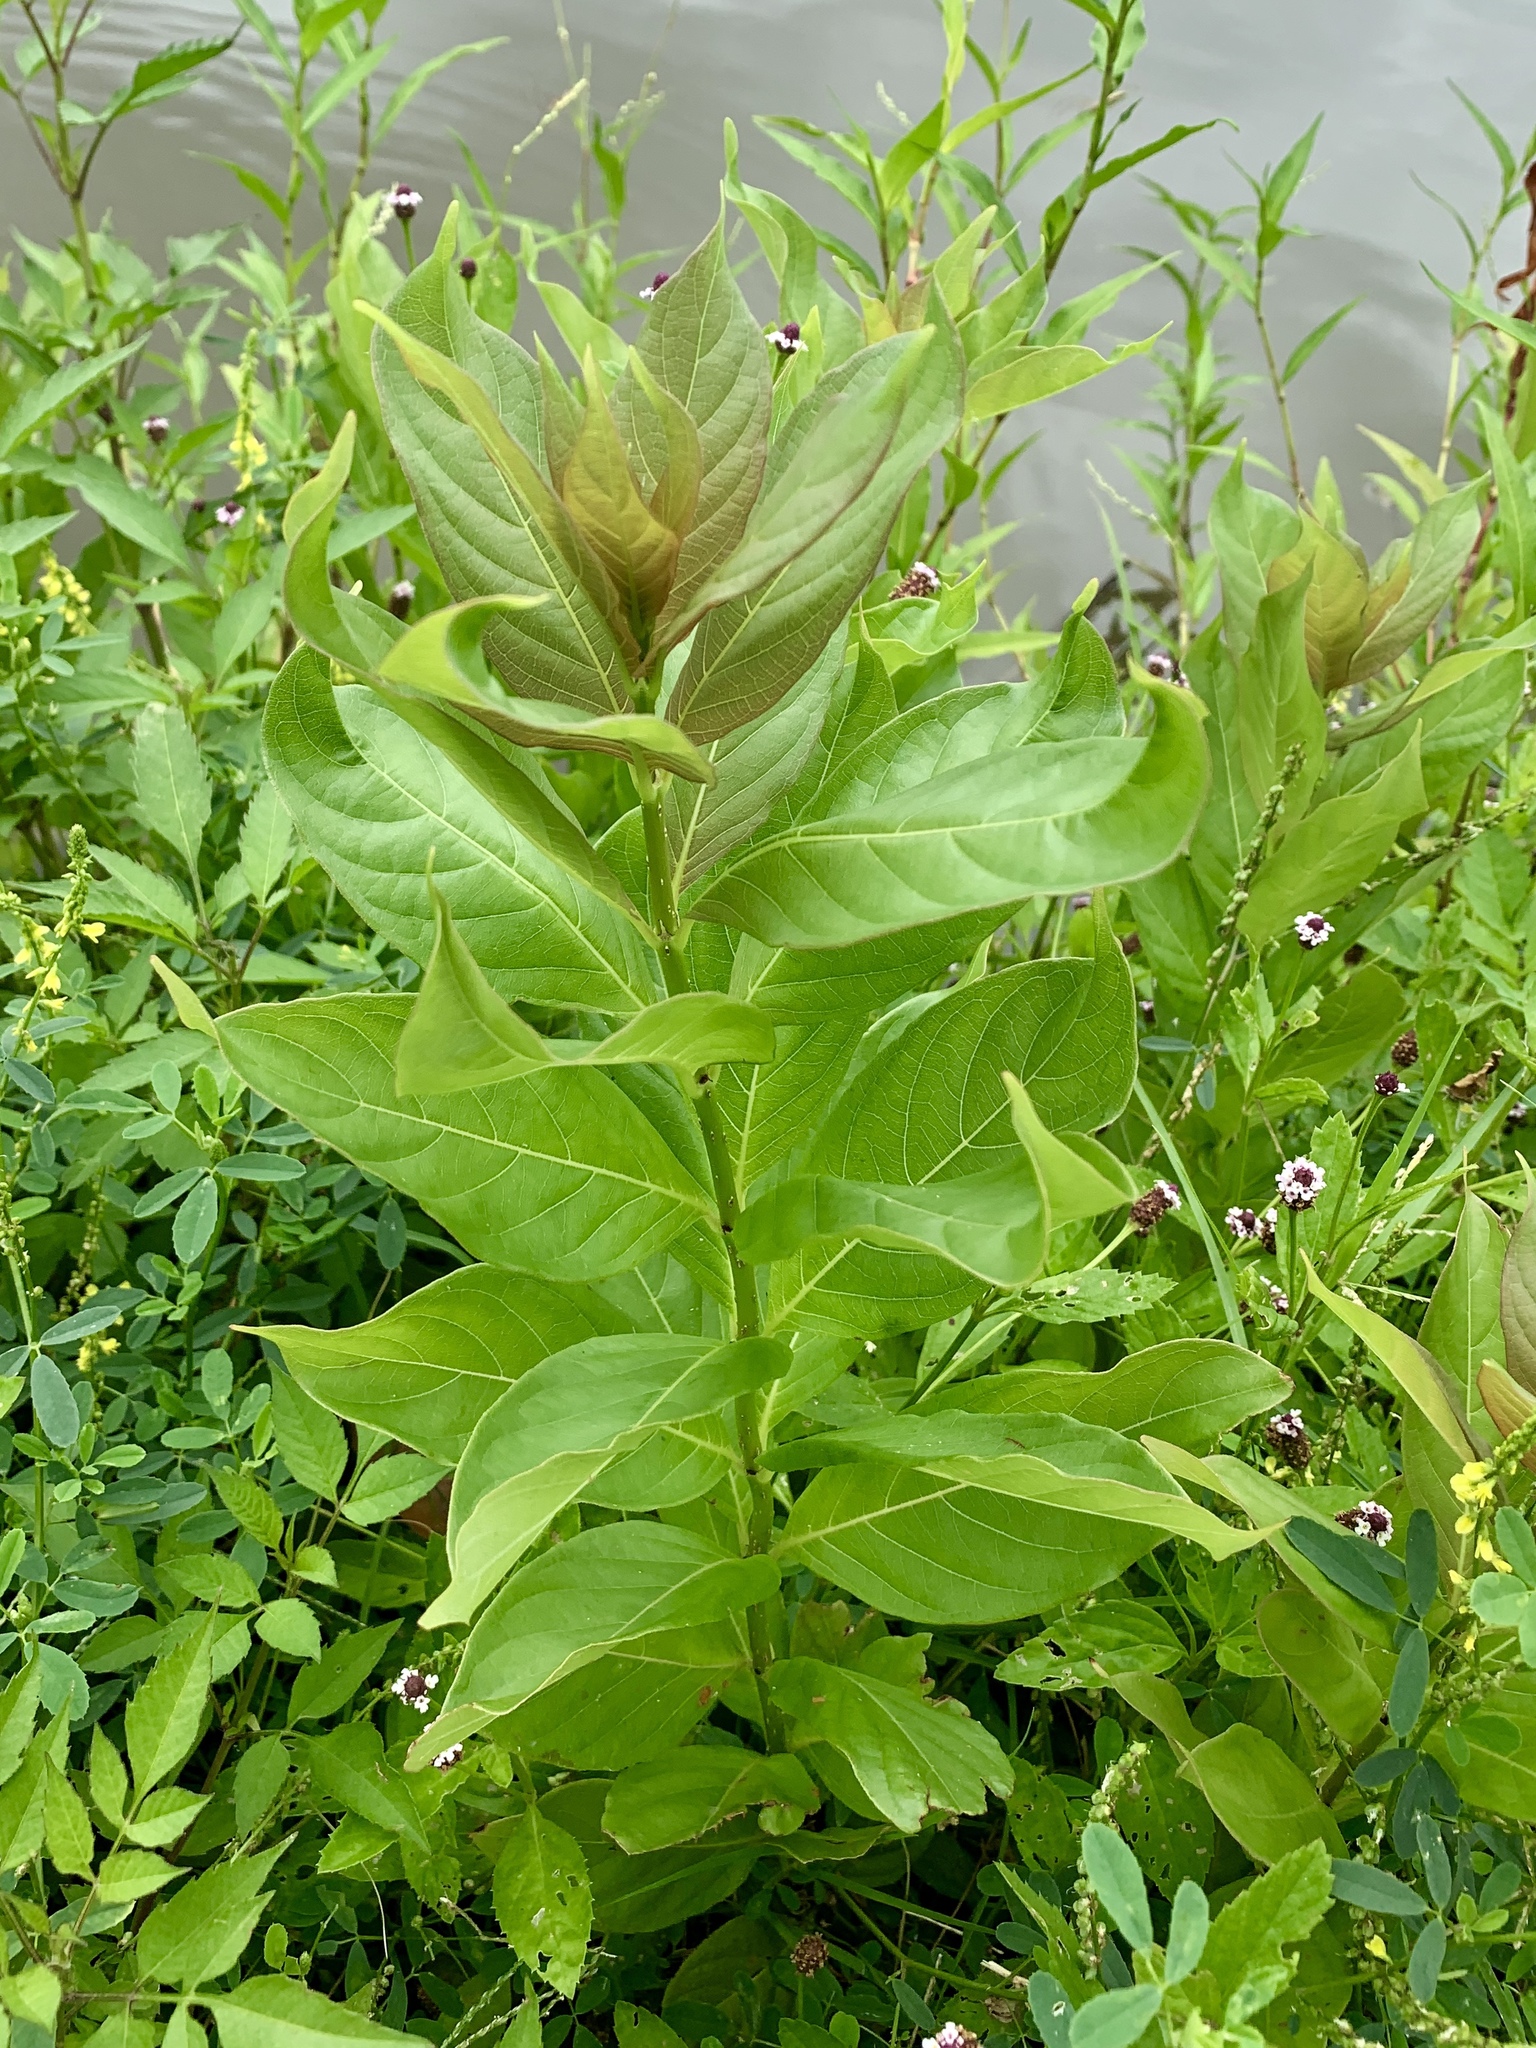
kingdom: Plantae
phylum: Tracheophyta
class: Magnoliopsida
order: Gentianales
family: Rubiaceae
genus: Cephalanthus
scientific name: Cephalanthus occidentalis
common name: Button-willow
